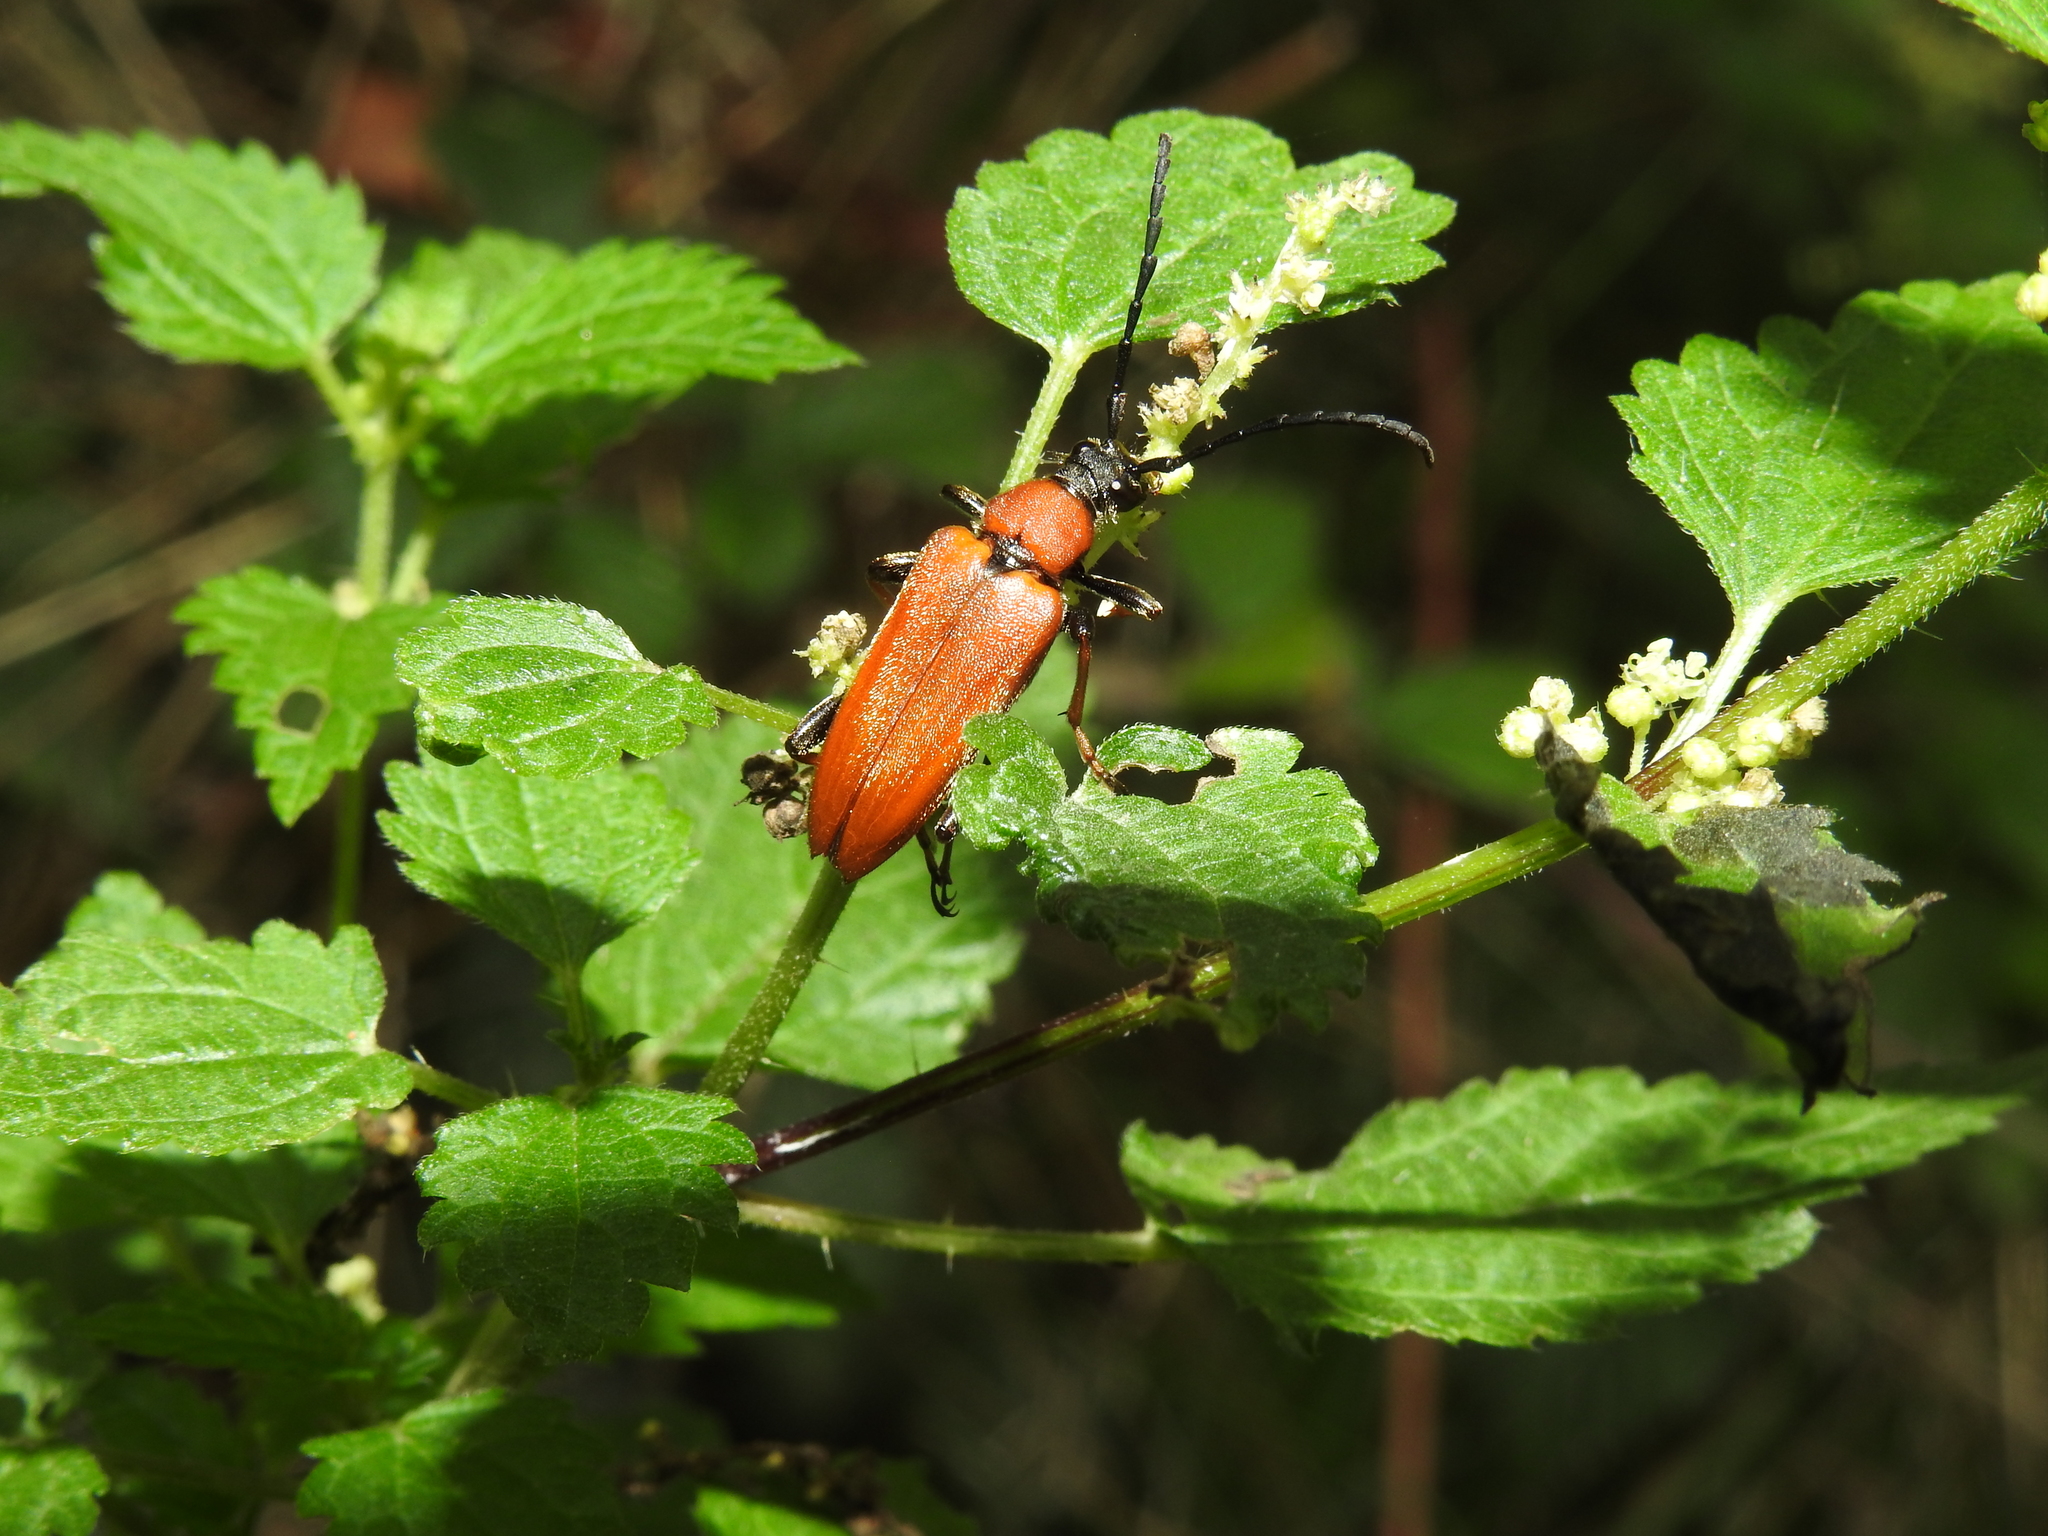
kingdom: Animalia
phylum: Arthropoda
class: Insecta
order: Coleoptera
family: Cerambycidae
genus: Stictoleptura
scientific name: Stictoleptura rubra
